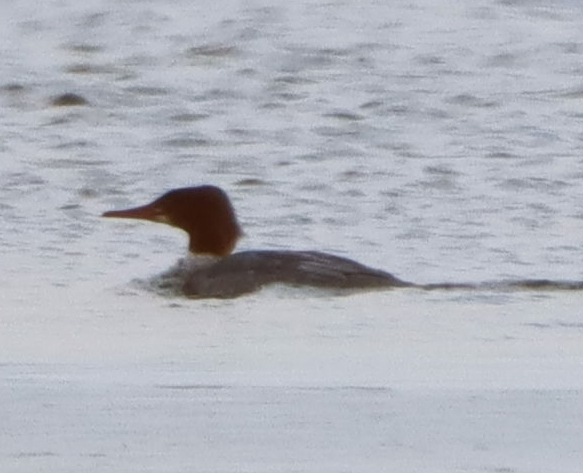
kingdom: Animalia
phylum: Chordata
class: Aves
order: Anseriformes
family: Anatidae
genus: Mergus
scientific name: Mergus merganser
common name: Common merganser
